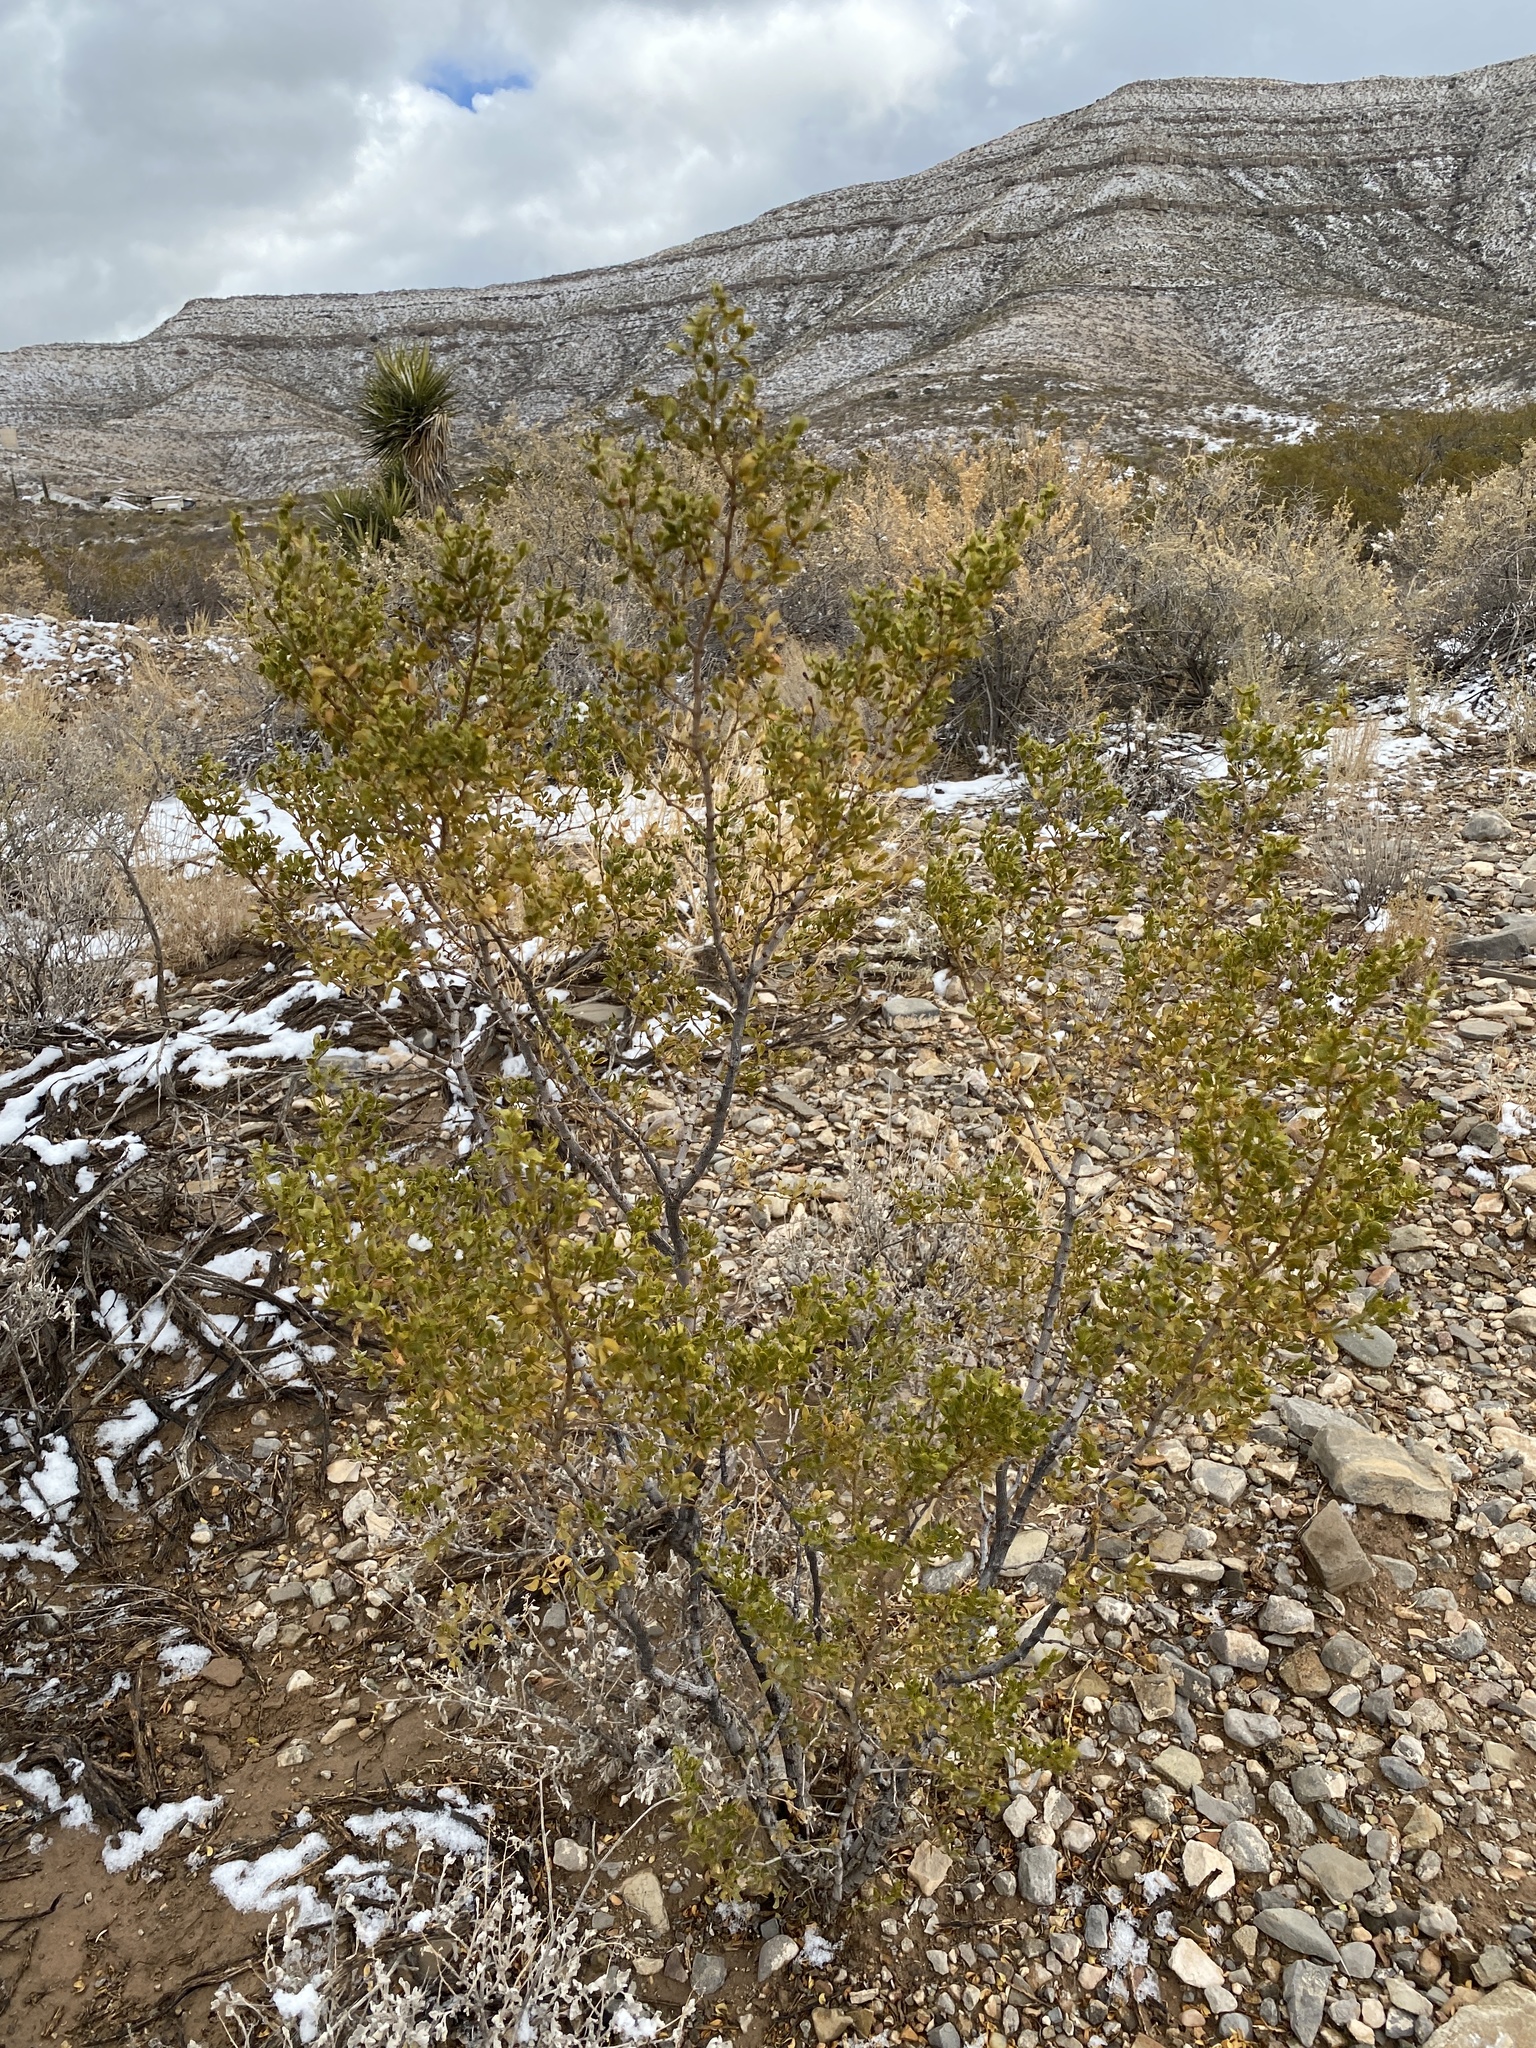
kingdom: Plantae
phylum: Tracheophyta
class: Magnoliopsida
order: Zygophyllales
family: Zygophyllaceae
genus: Larrea
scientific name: Larrea tridentata
